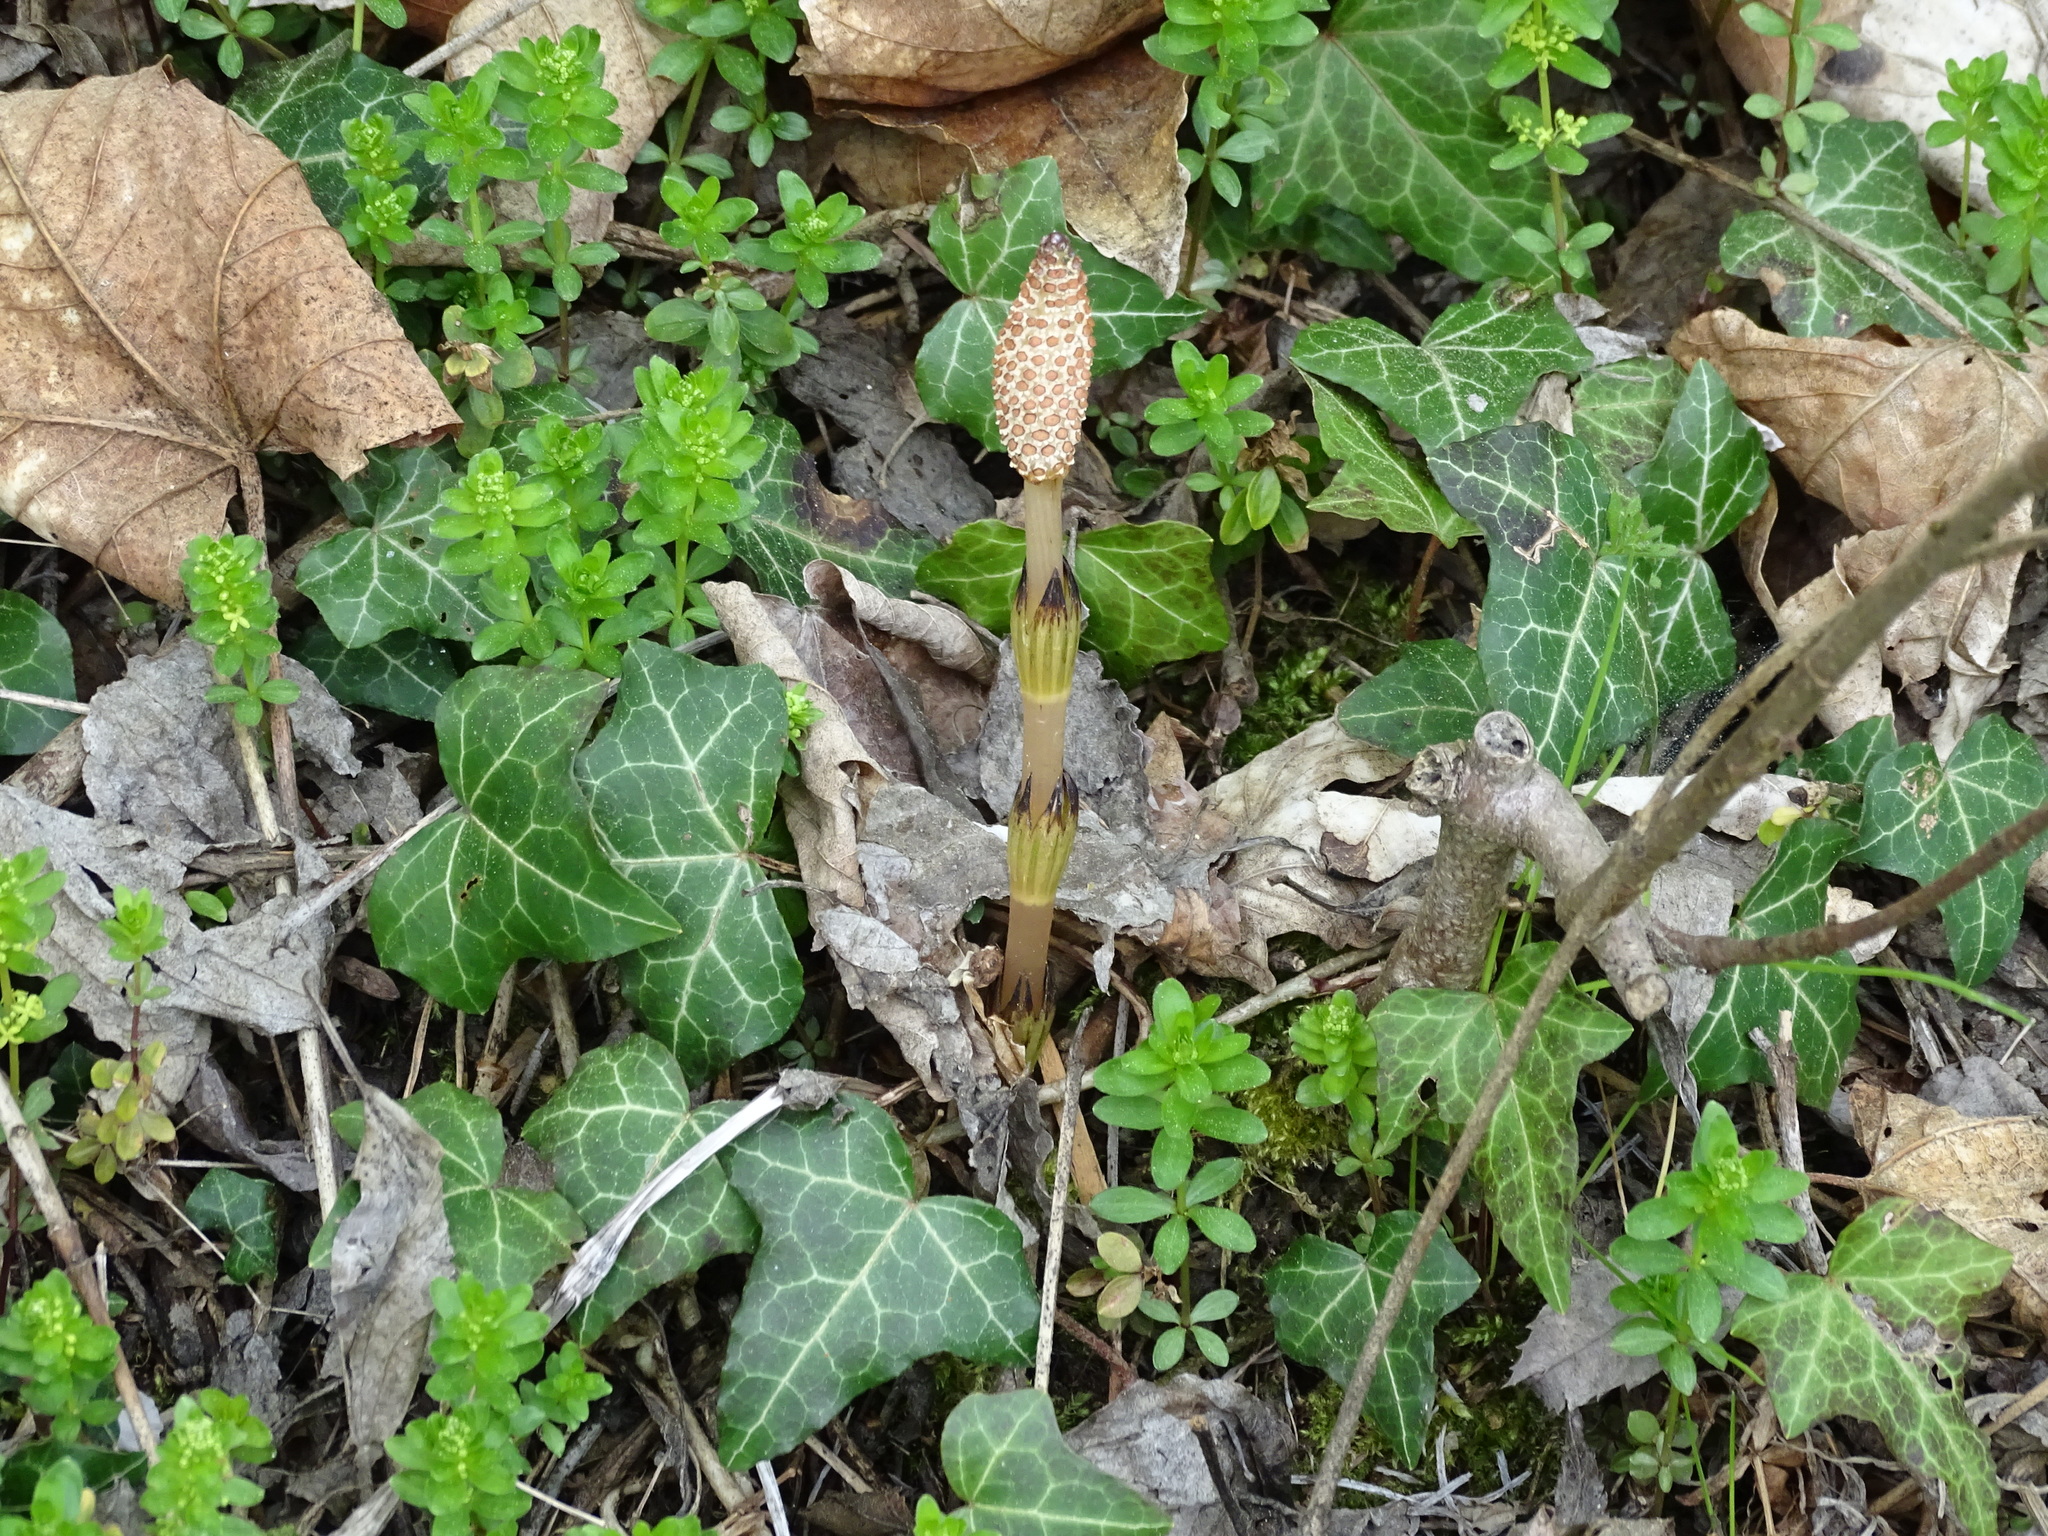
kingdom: Plantae
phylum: Tracheophyta
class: Polypodiopsida
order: Equisetales
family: Equisetaceae
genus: Equisetum
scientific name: Equisetum arvense
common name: Field horsetail
